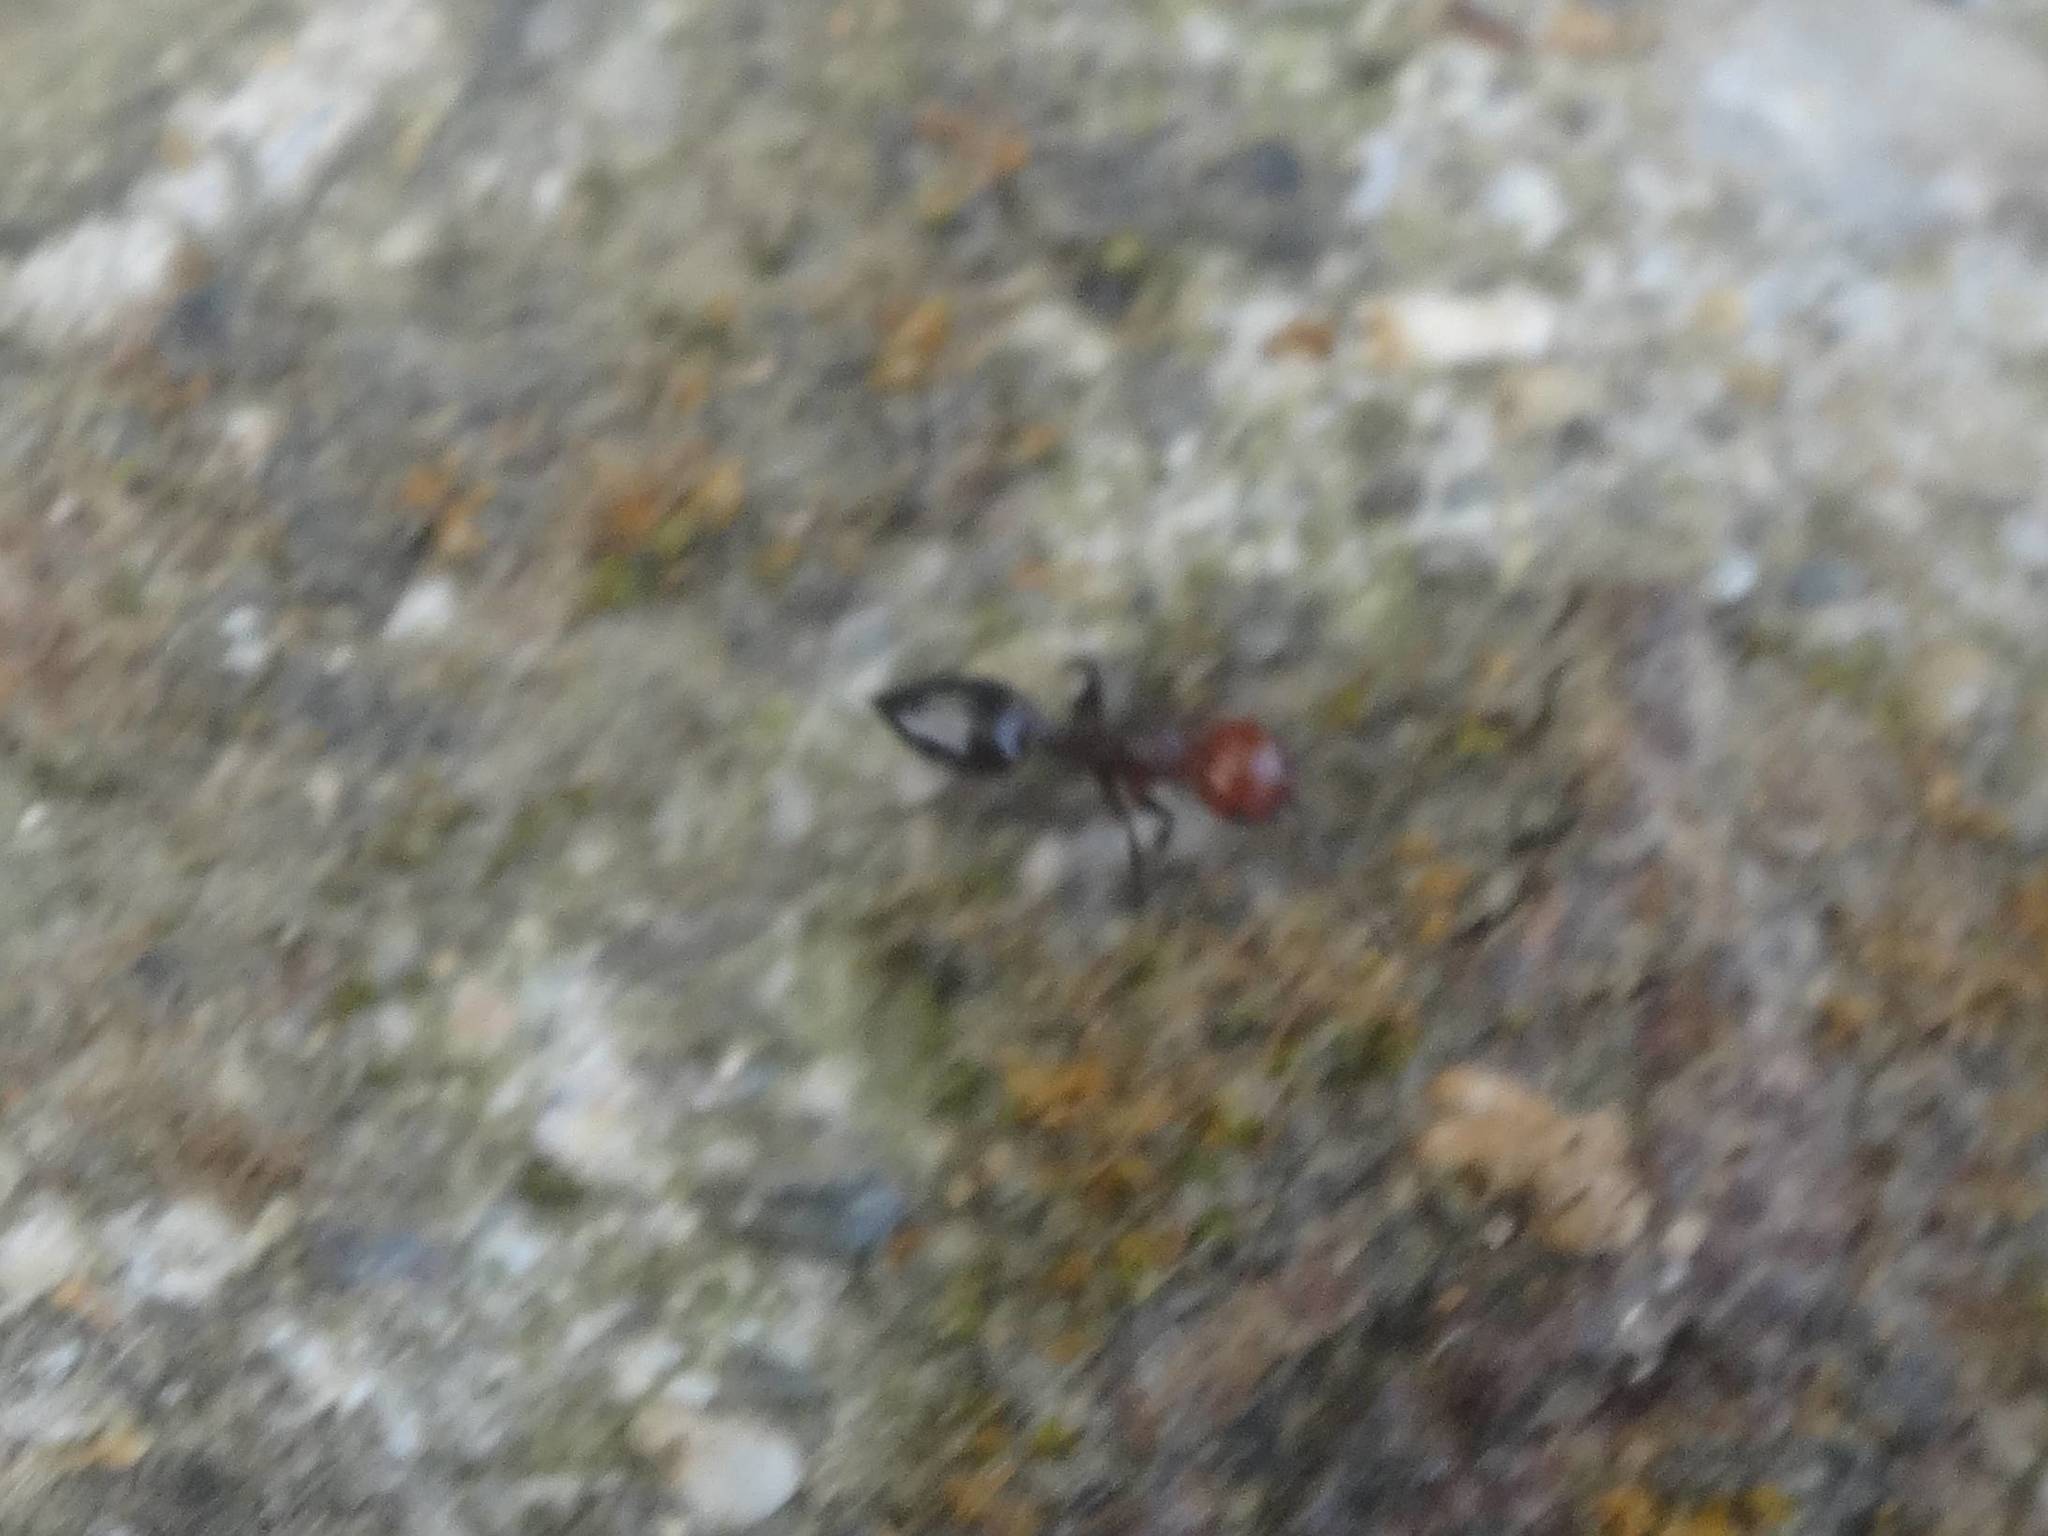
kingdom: Animalia
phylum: Arthropoda
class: Insecta
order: Hymenoptera
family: Formicidae
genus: Crematogaster
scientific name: Crematogaster scutellaris
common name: Fourmi du liège
